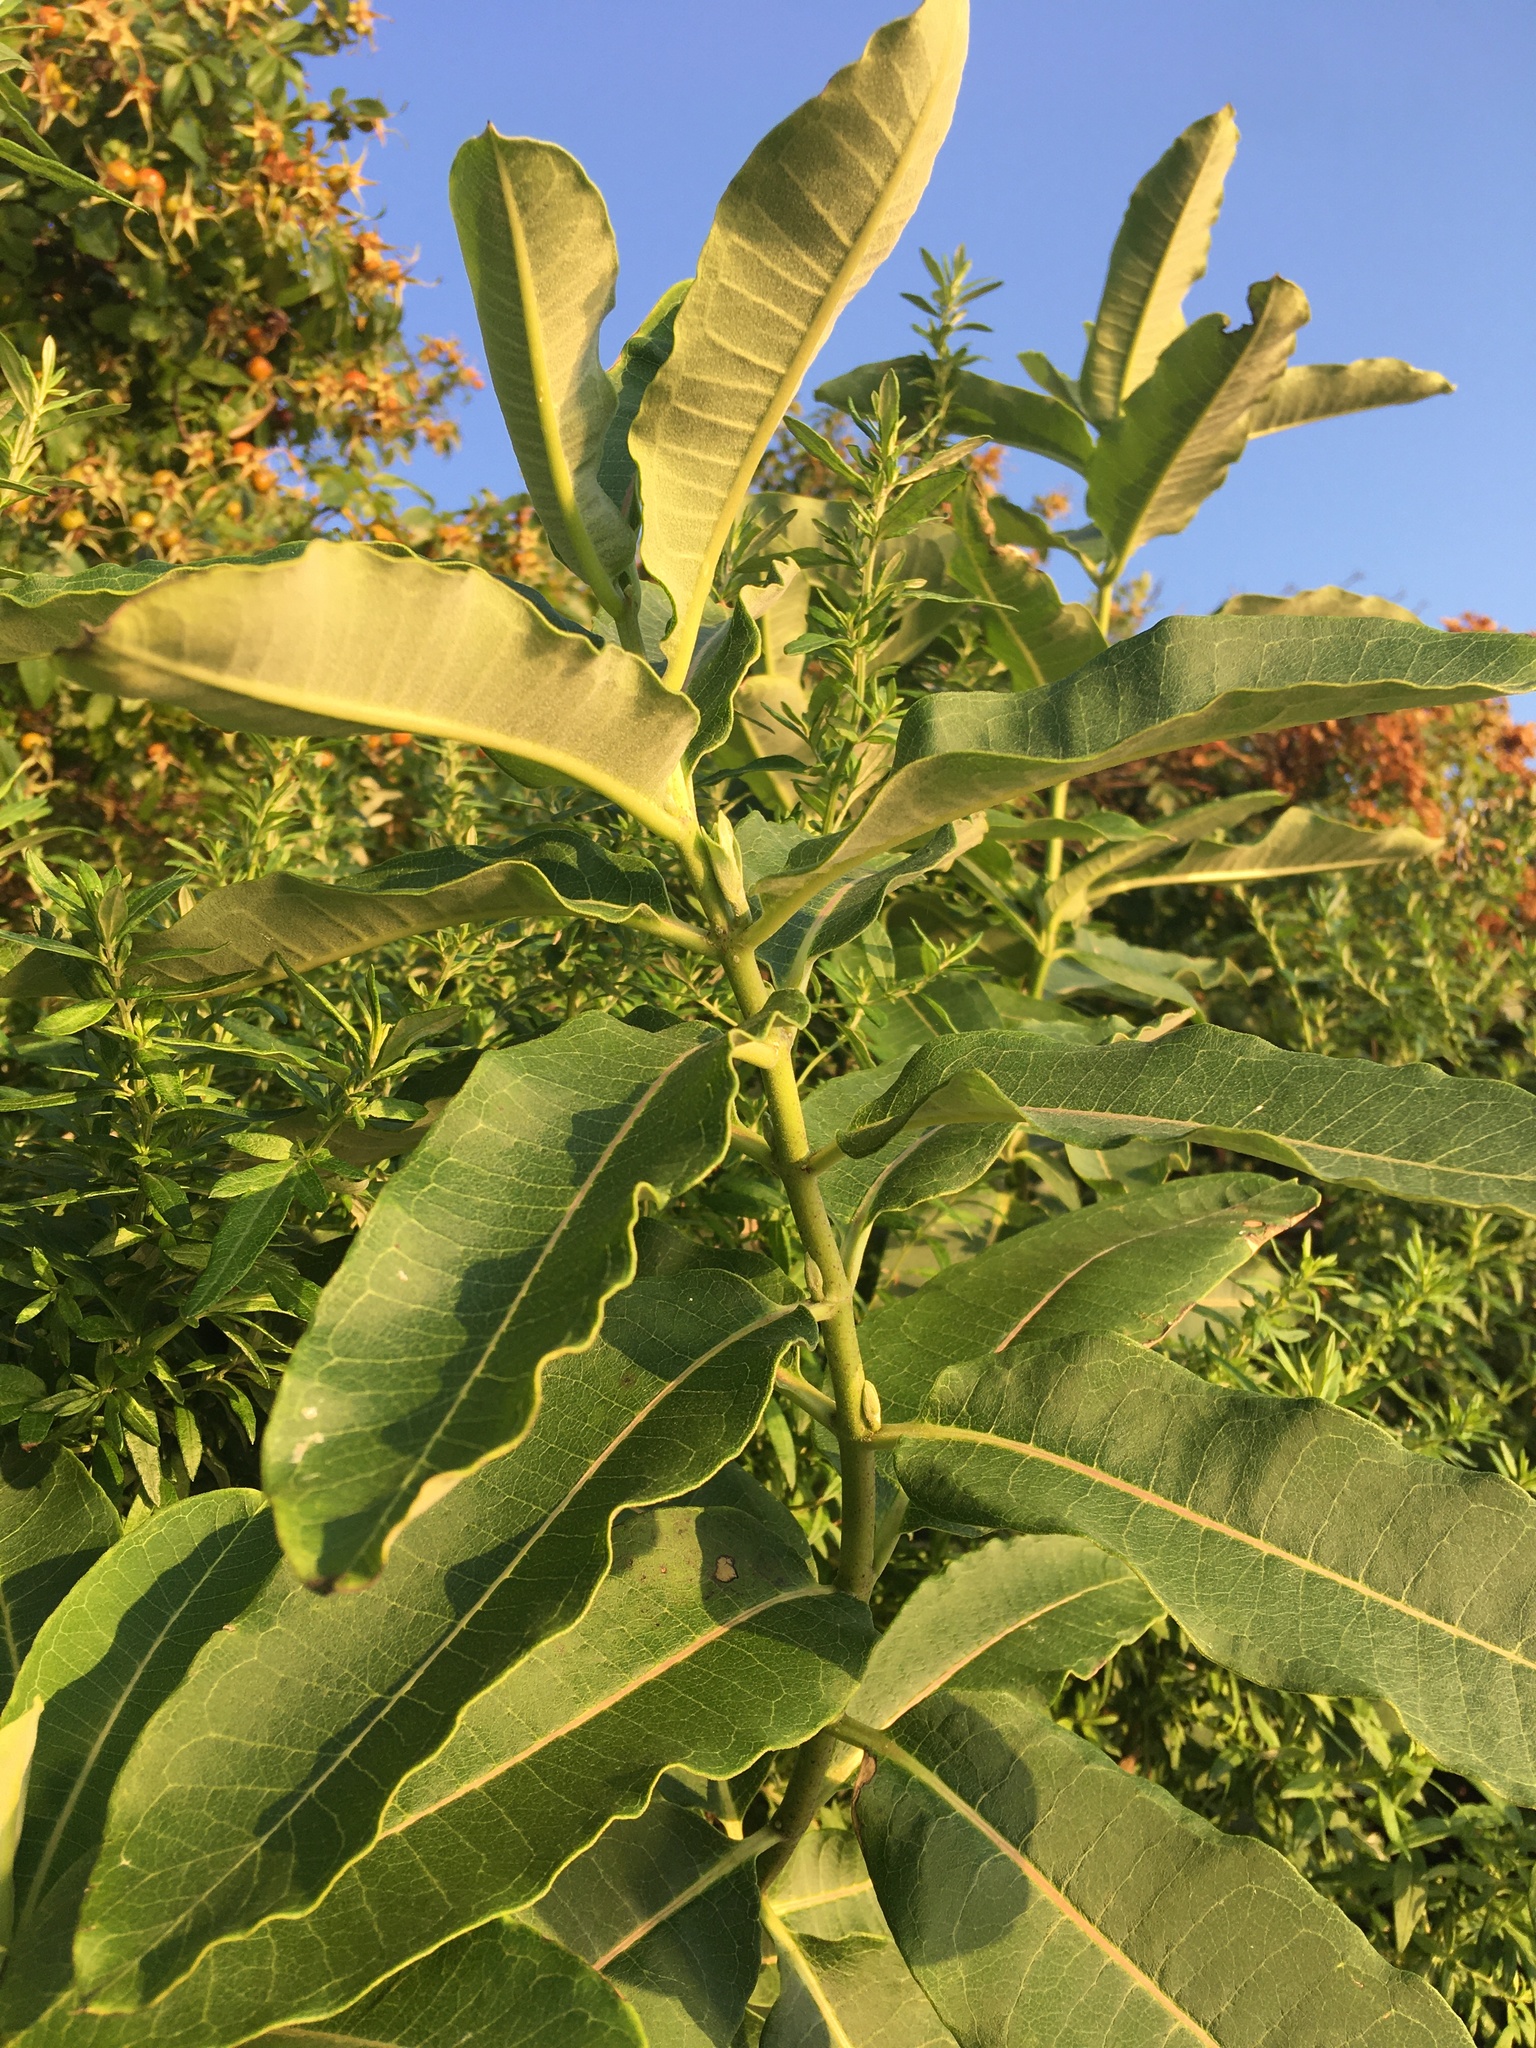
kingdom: Plantae
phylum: Tracheophyta
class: Magnoliopsida
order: Gentianales
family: Apocynaceae
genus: Asclepias
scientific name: Asclepias syriaca
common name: Common milkweed
